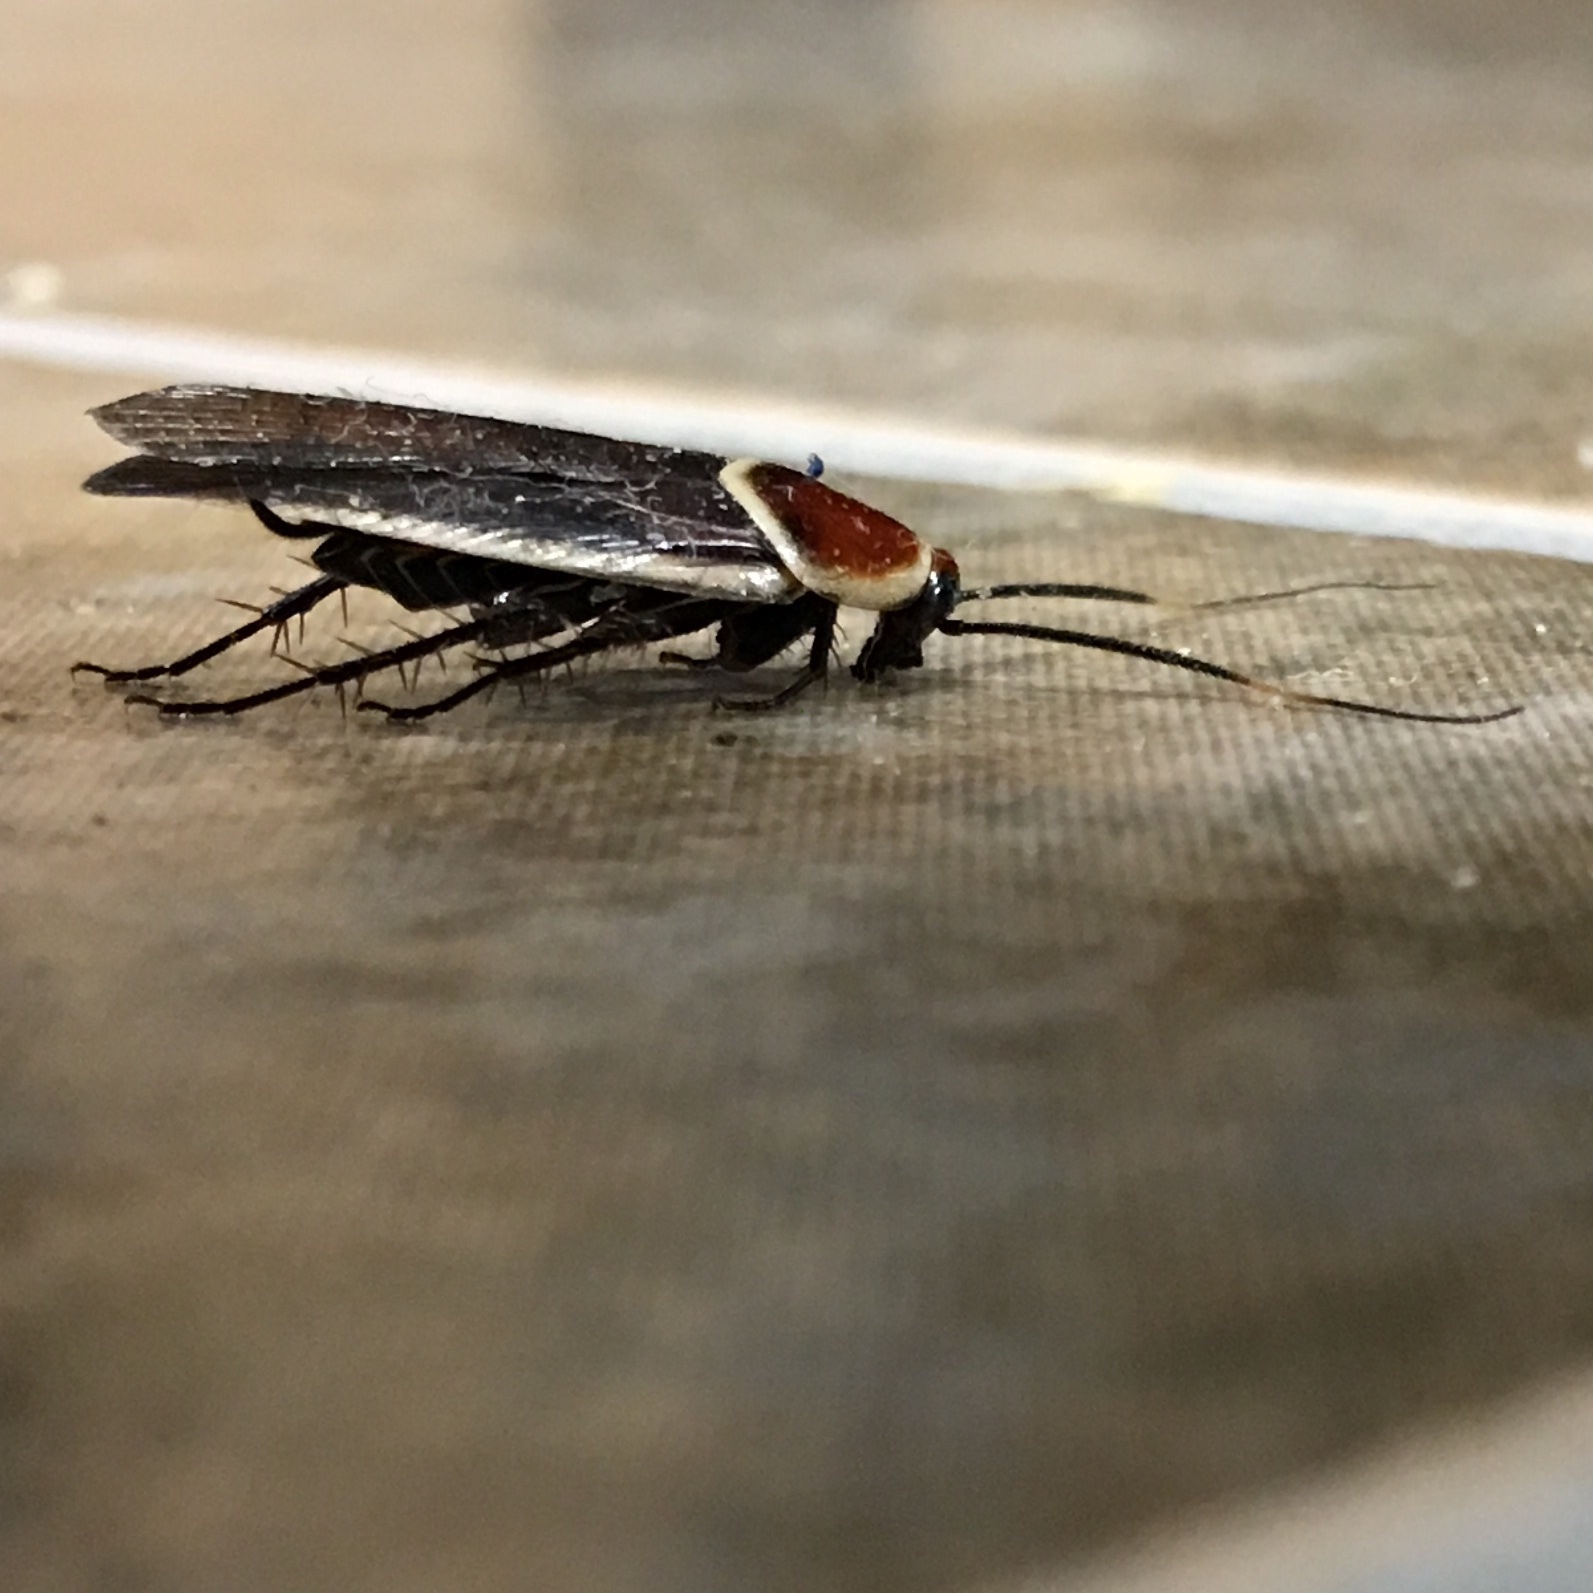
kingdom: Animalia
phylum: Arthropoda
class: Insecta
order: Blattodea
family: Ectobiidae
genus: Pseudomops
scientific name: Pseudomops septentrionalis
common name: Pale-bordered field cockroach
